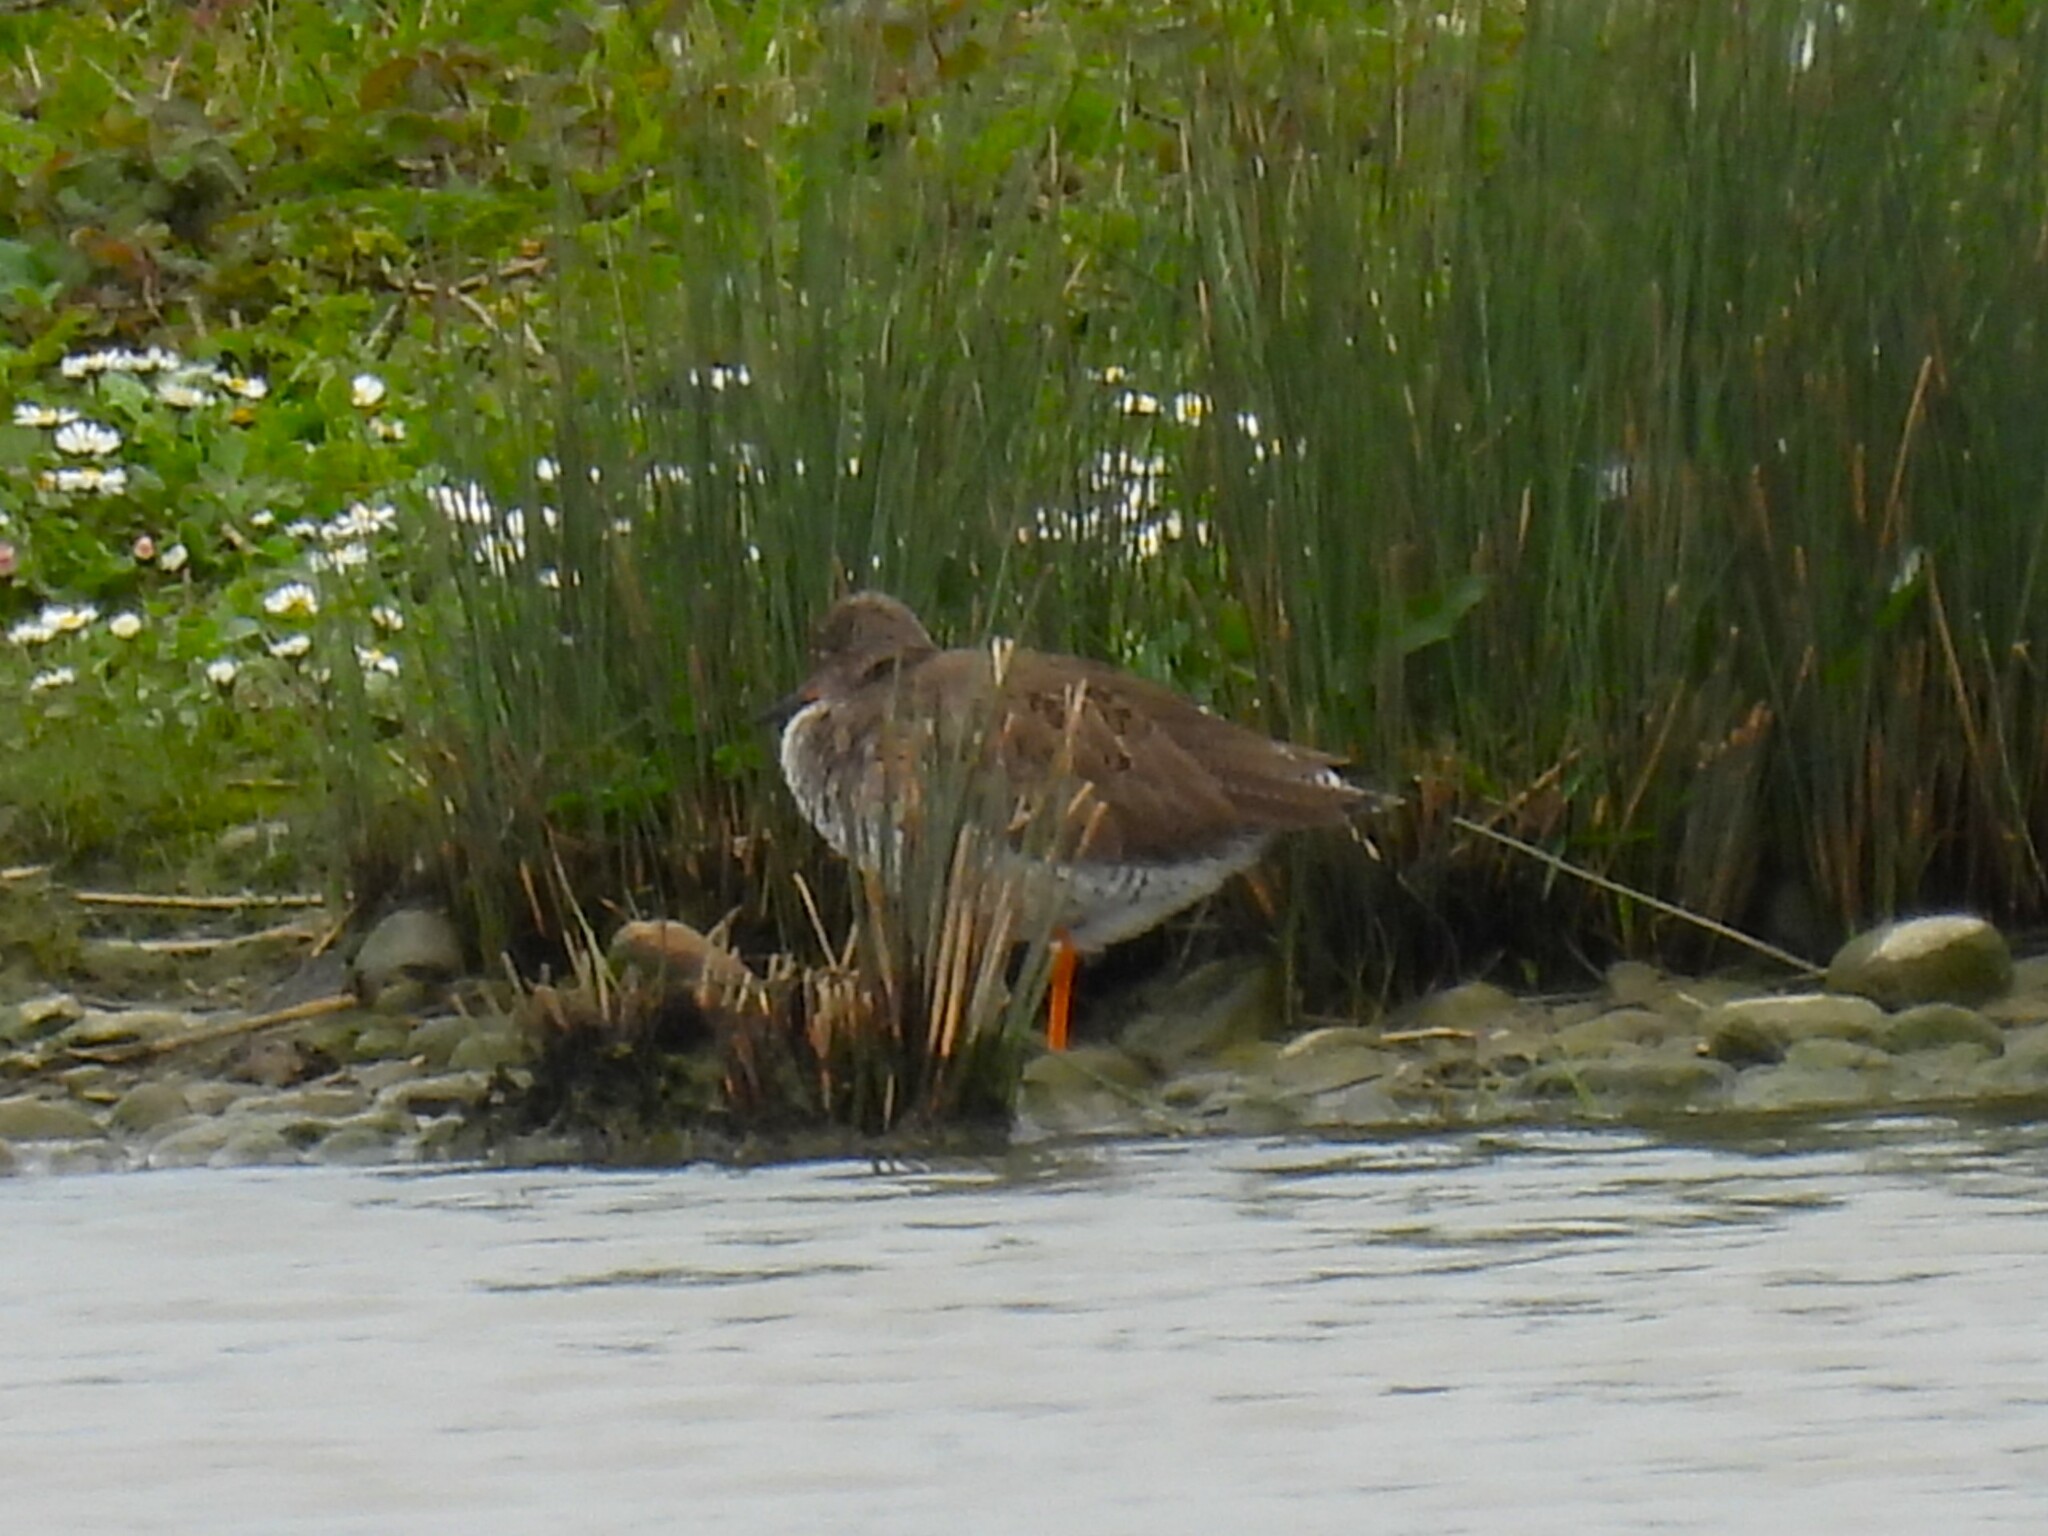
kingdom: Animalia
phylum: Chordata
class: Aves
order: Charadriiformes
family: Scolopacidae
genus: Tringa
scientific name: Tringa totanus
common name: Common redshank
